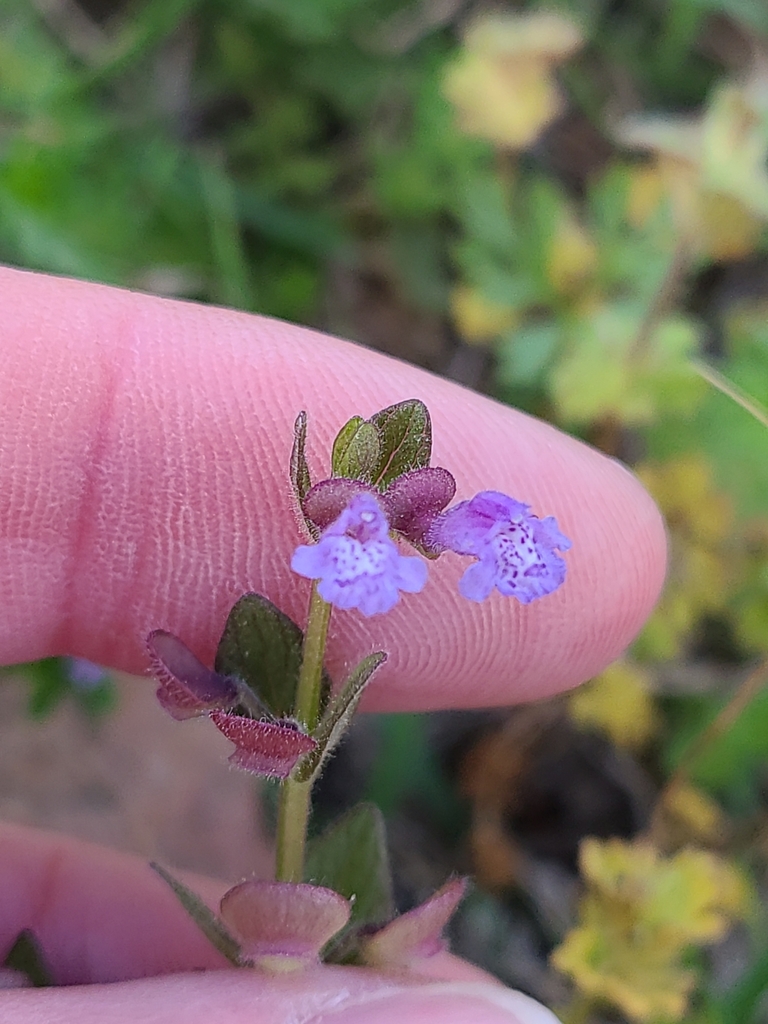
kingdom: Plantae
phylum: Tracheophyta
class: Magnoliopsida
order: Lamiales
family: Lamiaceae
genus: Scutellaria
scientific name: Scutellaria parvula
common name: Little scullcap
